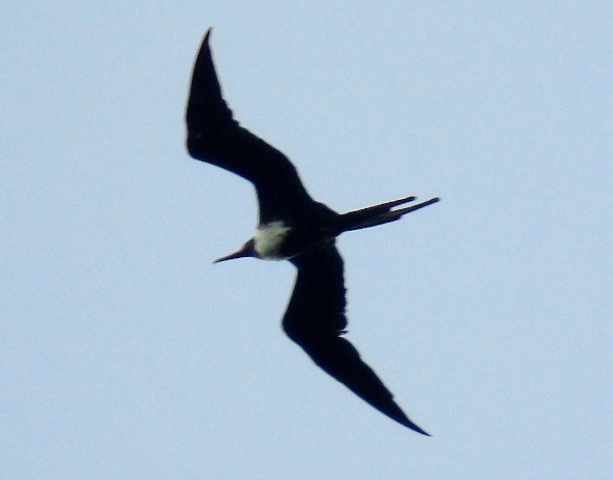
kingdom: Animalia
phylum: Chordata
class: Aves
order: Suliformes
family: Fregatidae
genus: Fregata
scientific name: Fregata magnificens
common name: Magnificent frigatebird
